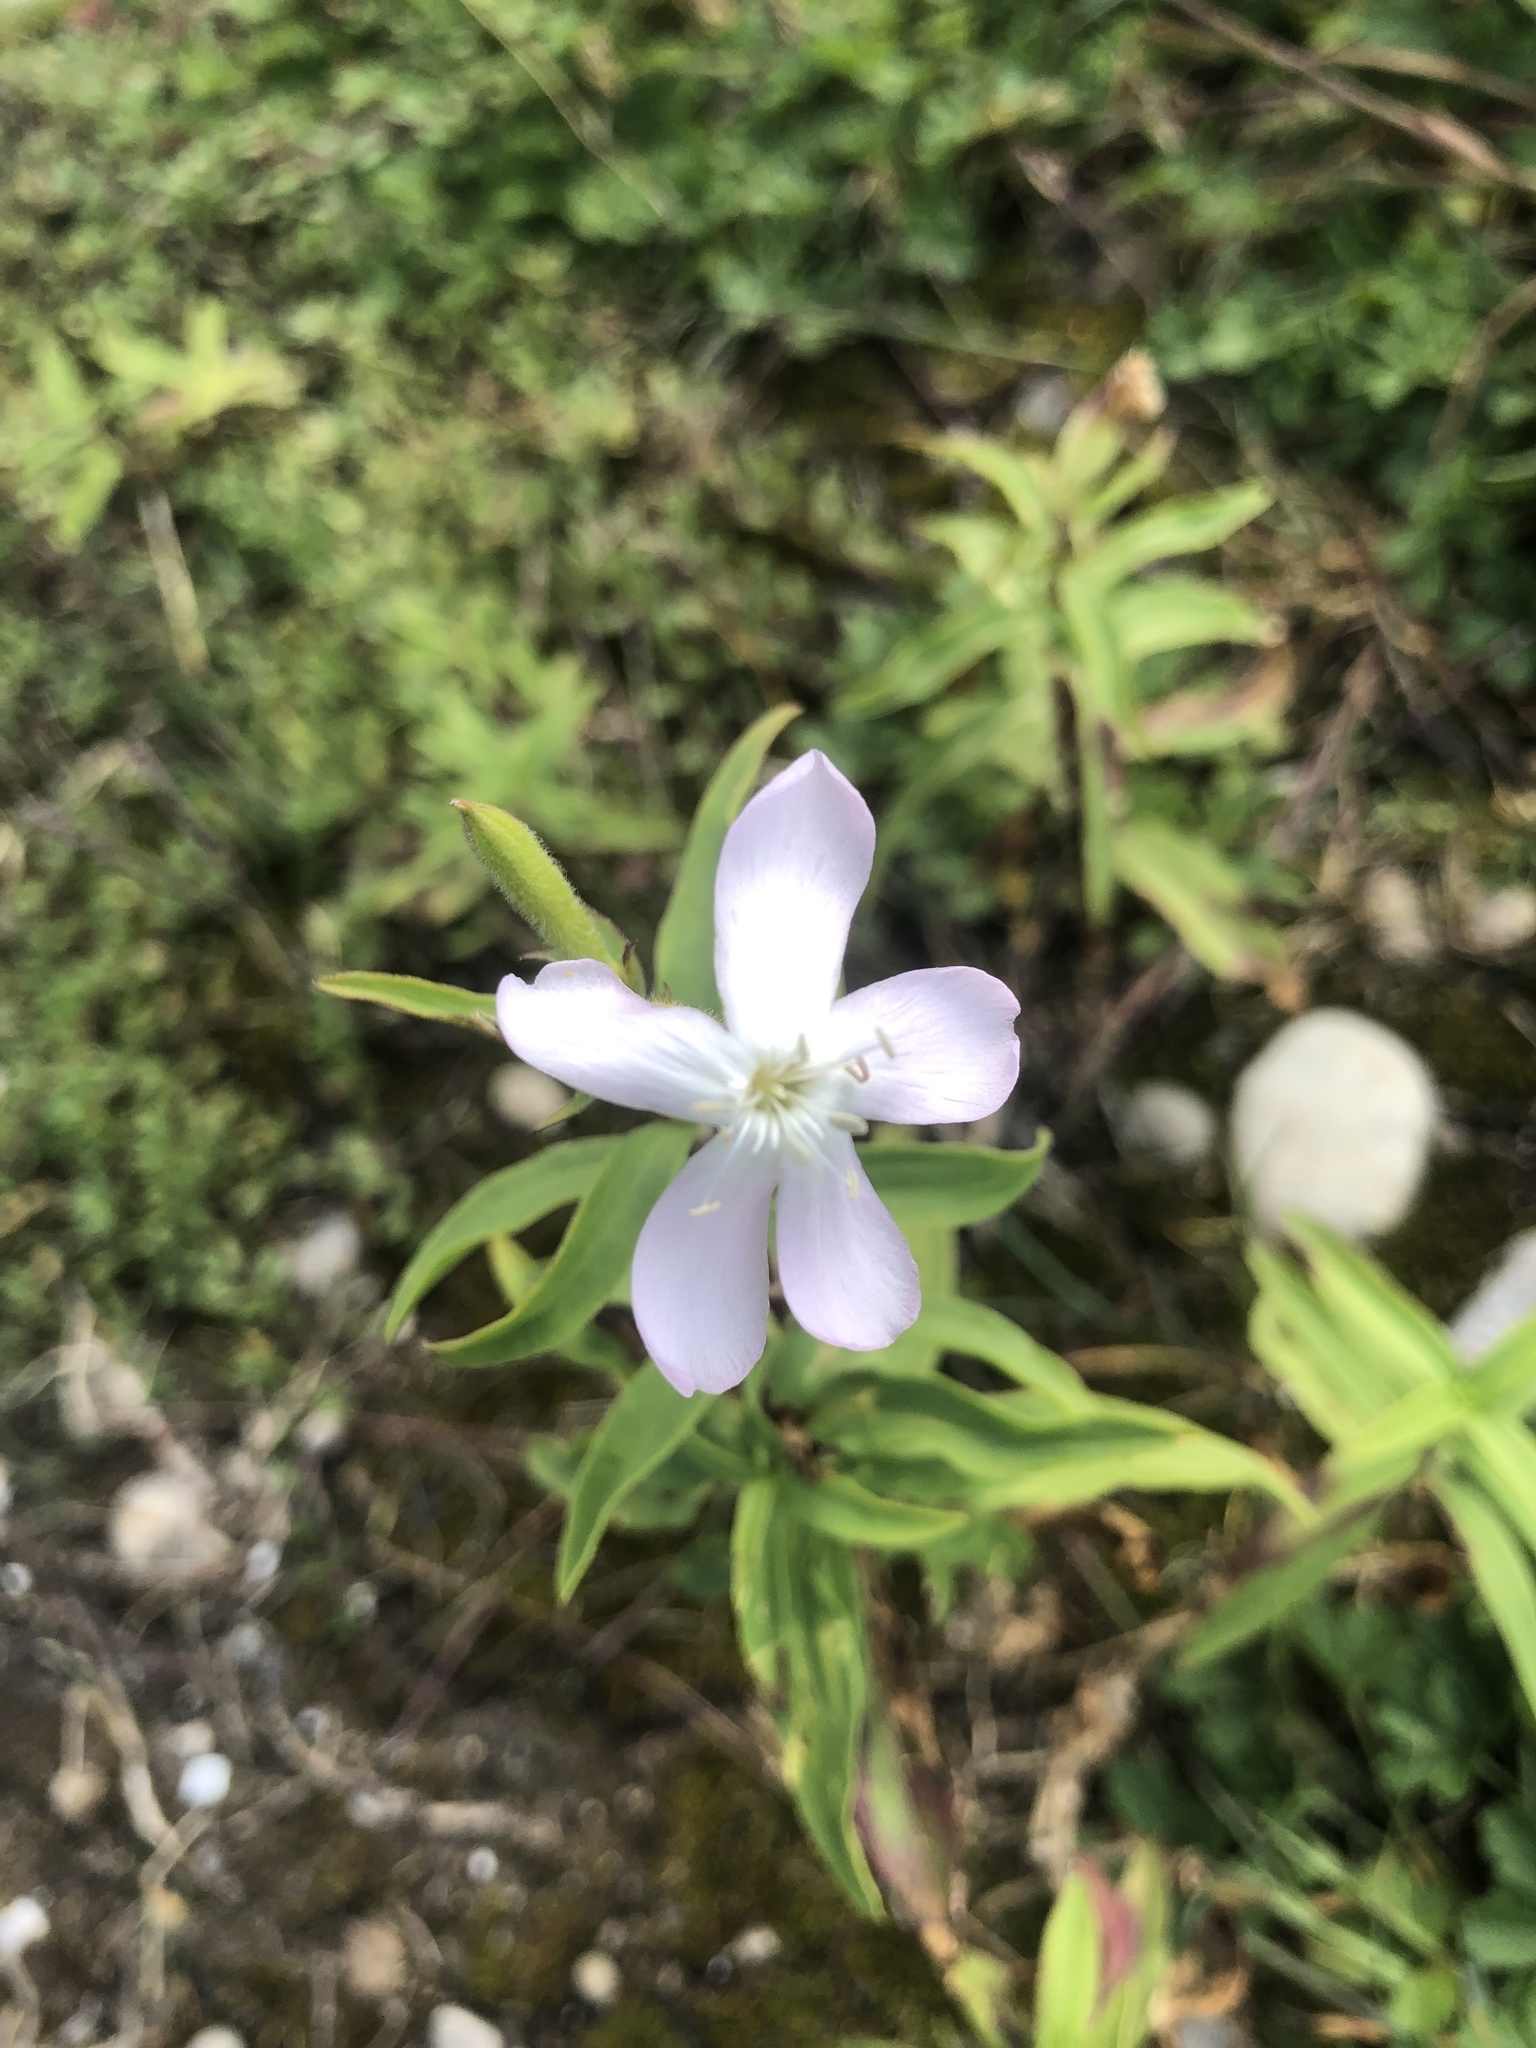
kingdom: Plantae
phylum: Tracheophyta
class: Magnoliopsida
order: Caryophyllales
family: Caryophyllaceae
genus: Saponaria
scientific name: Saponaria officinalis
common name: Soapwort
